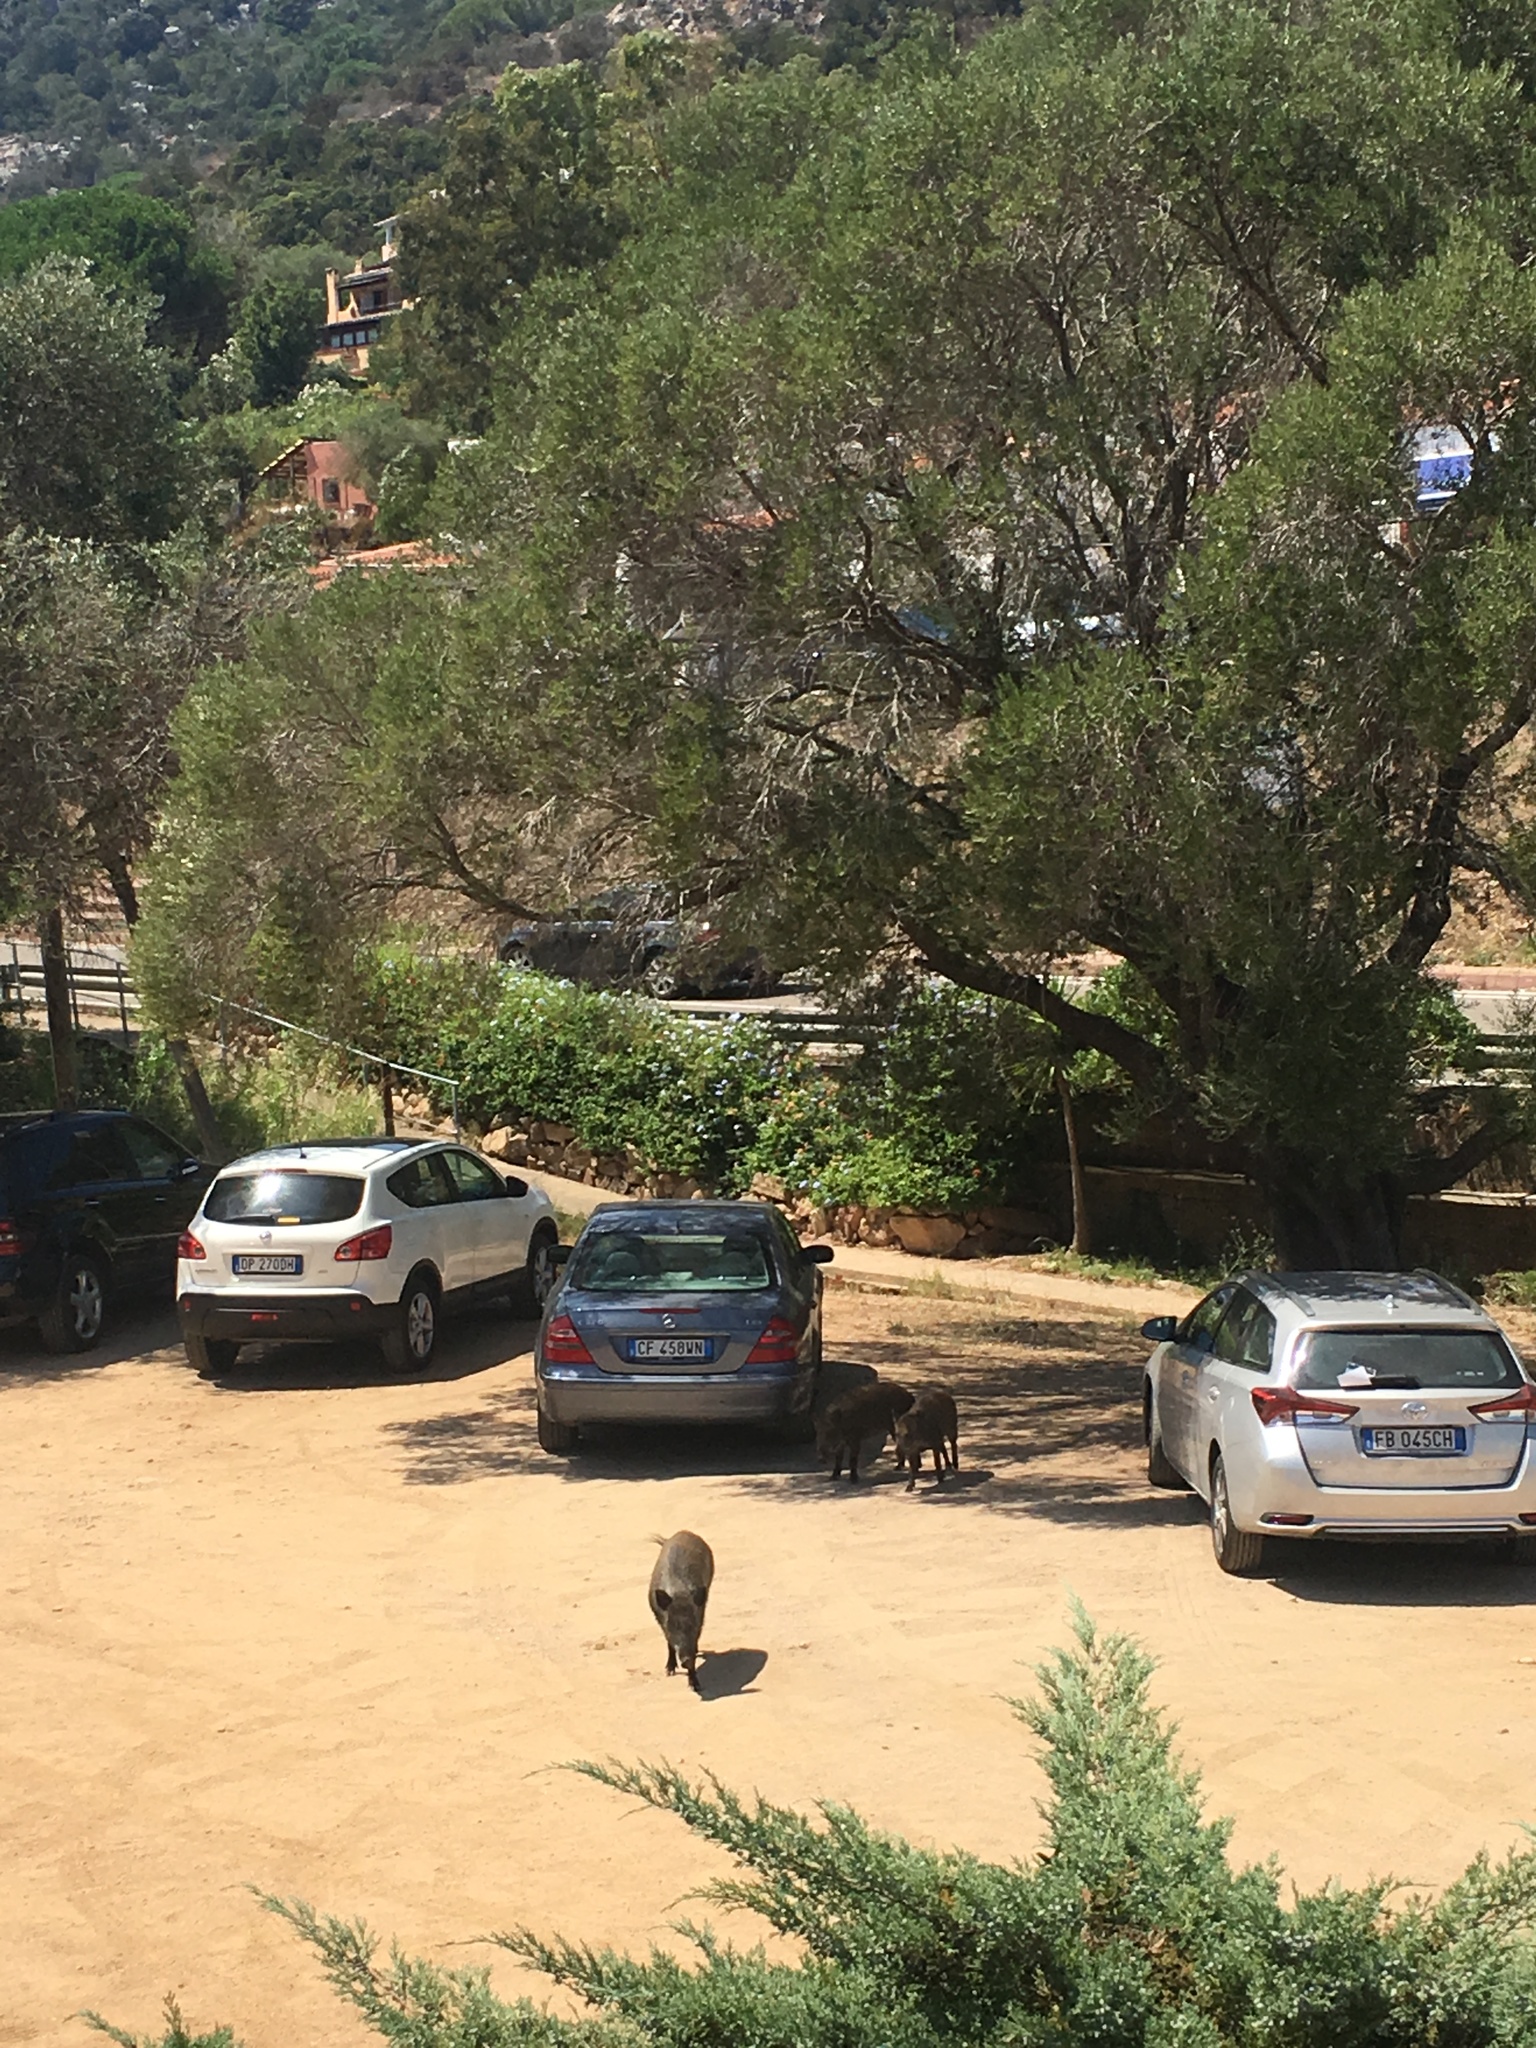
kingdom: Animalia
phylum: Chordata
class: Mammalia
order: Artiodactyla
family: Suidae
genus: Sus
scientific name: Sus scrofa
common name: Wild boar
